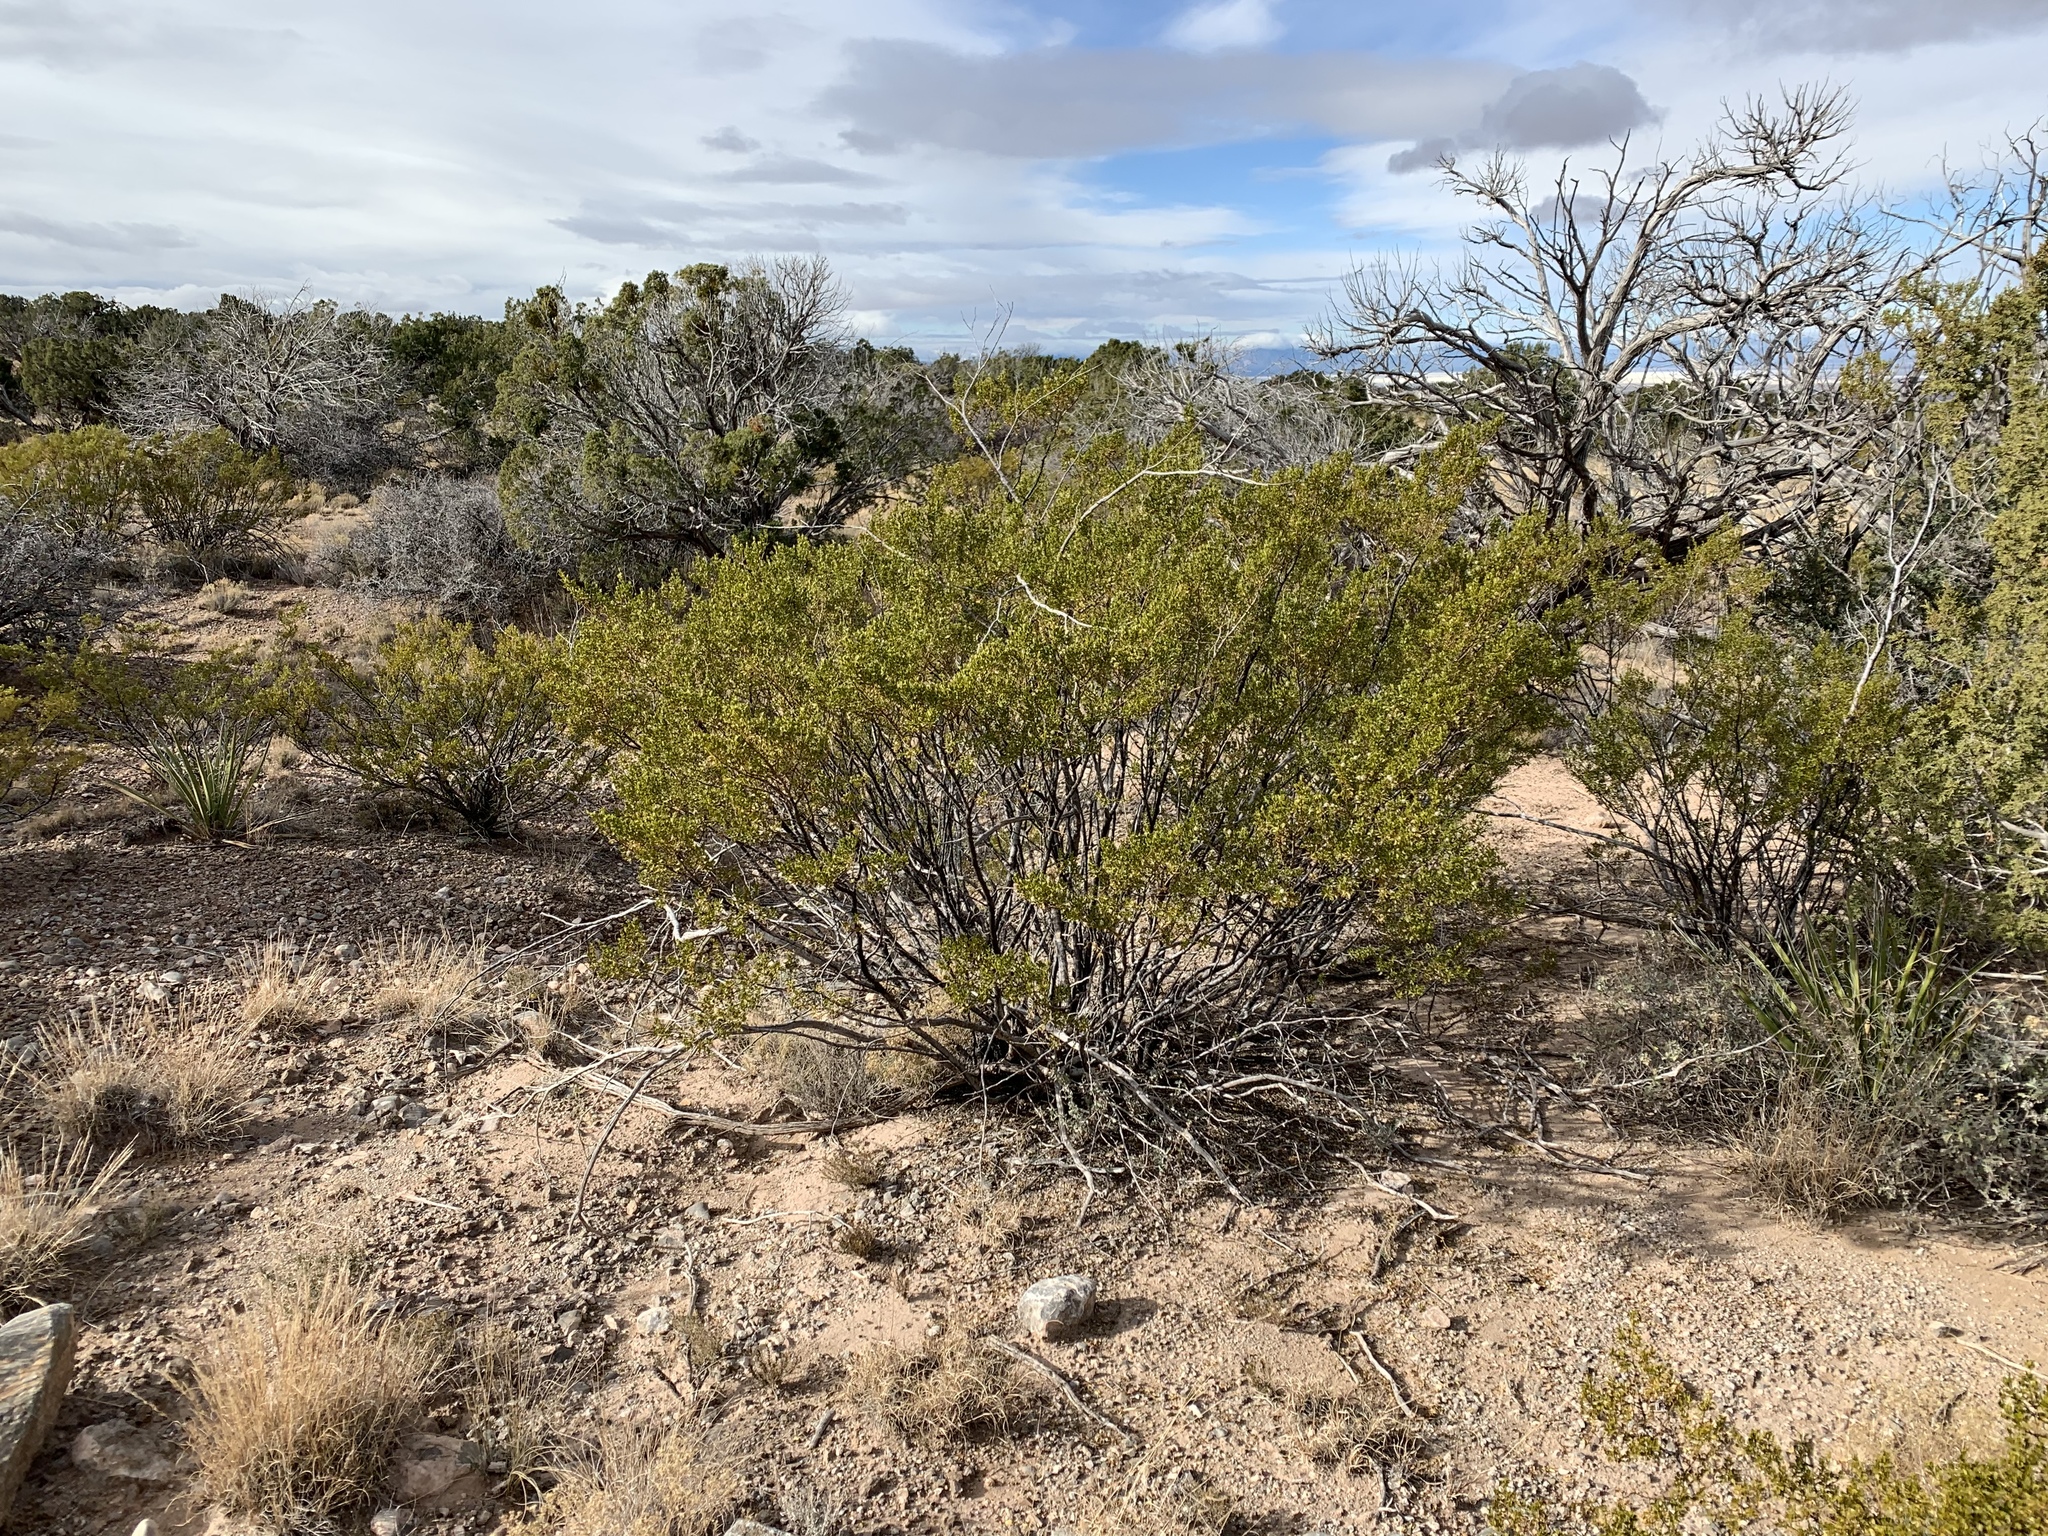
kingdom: Plantae
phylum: Tracheophyta
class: Magnoliopsida
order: Zygophyllales
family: Zygophyllaceae
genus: Larrea
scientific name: Larrea tridentata
